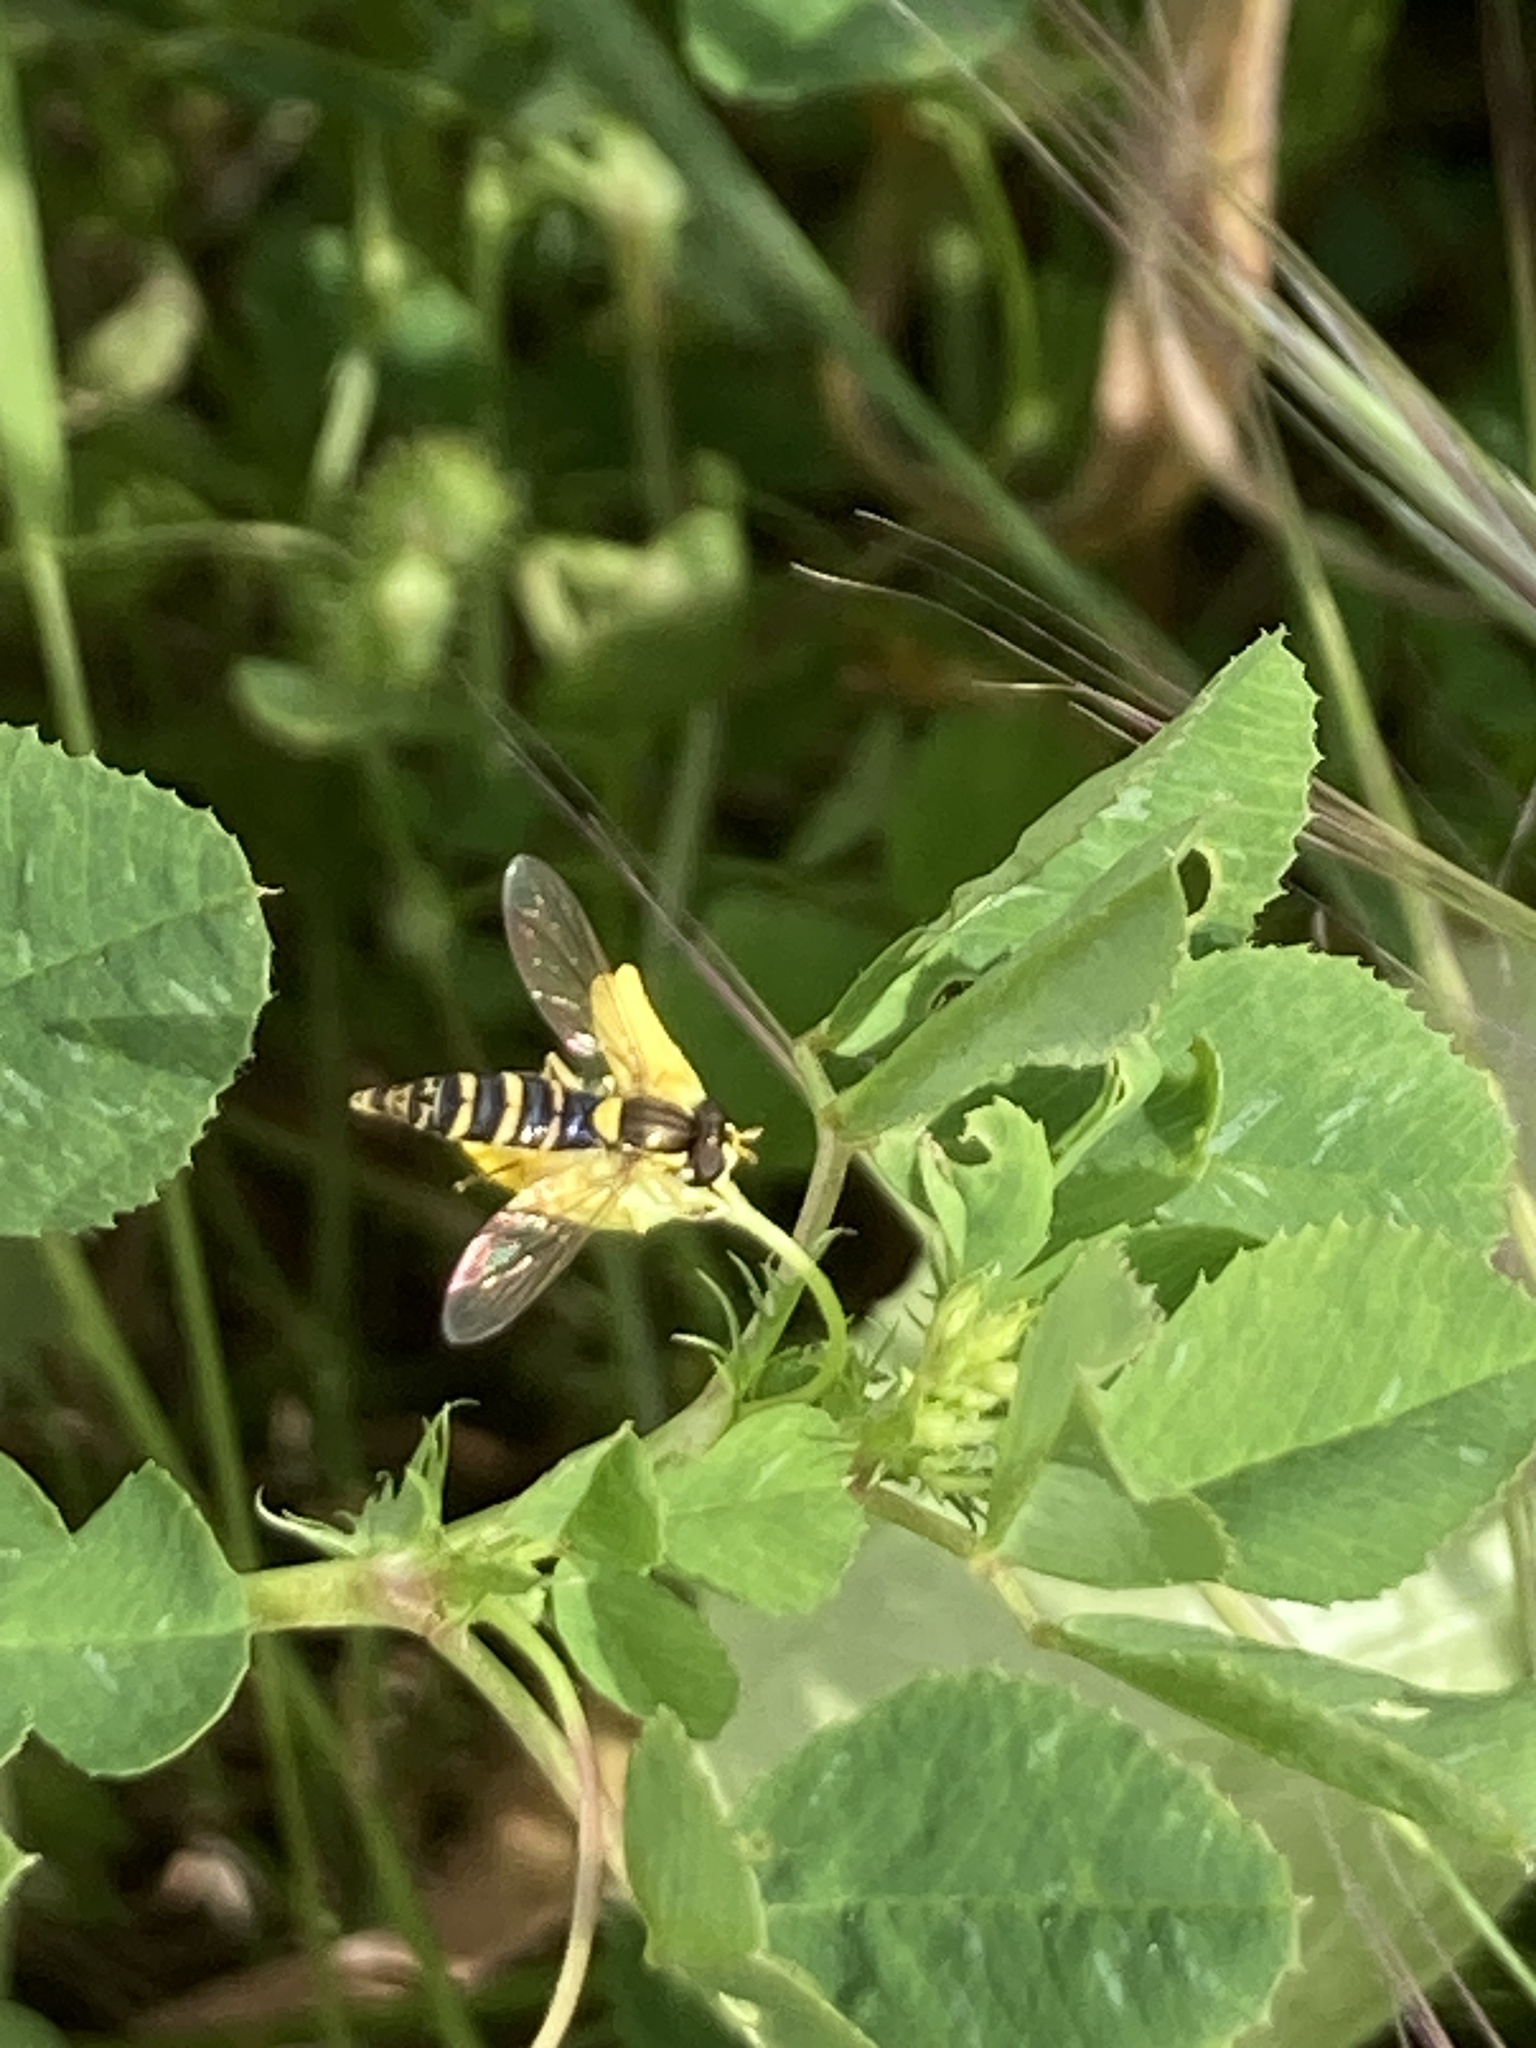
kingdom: Animalia
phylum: Arthropoda
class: Insecta
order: Diptera
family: Syrphidae
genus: Sphaerophoria
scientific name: Sphaerophoria
